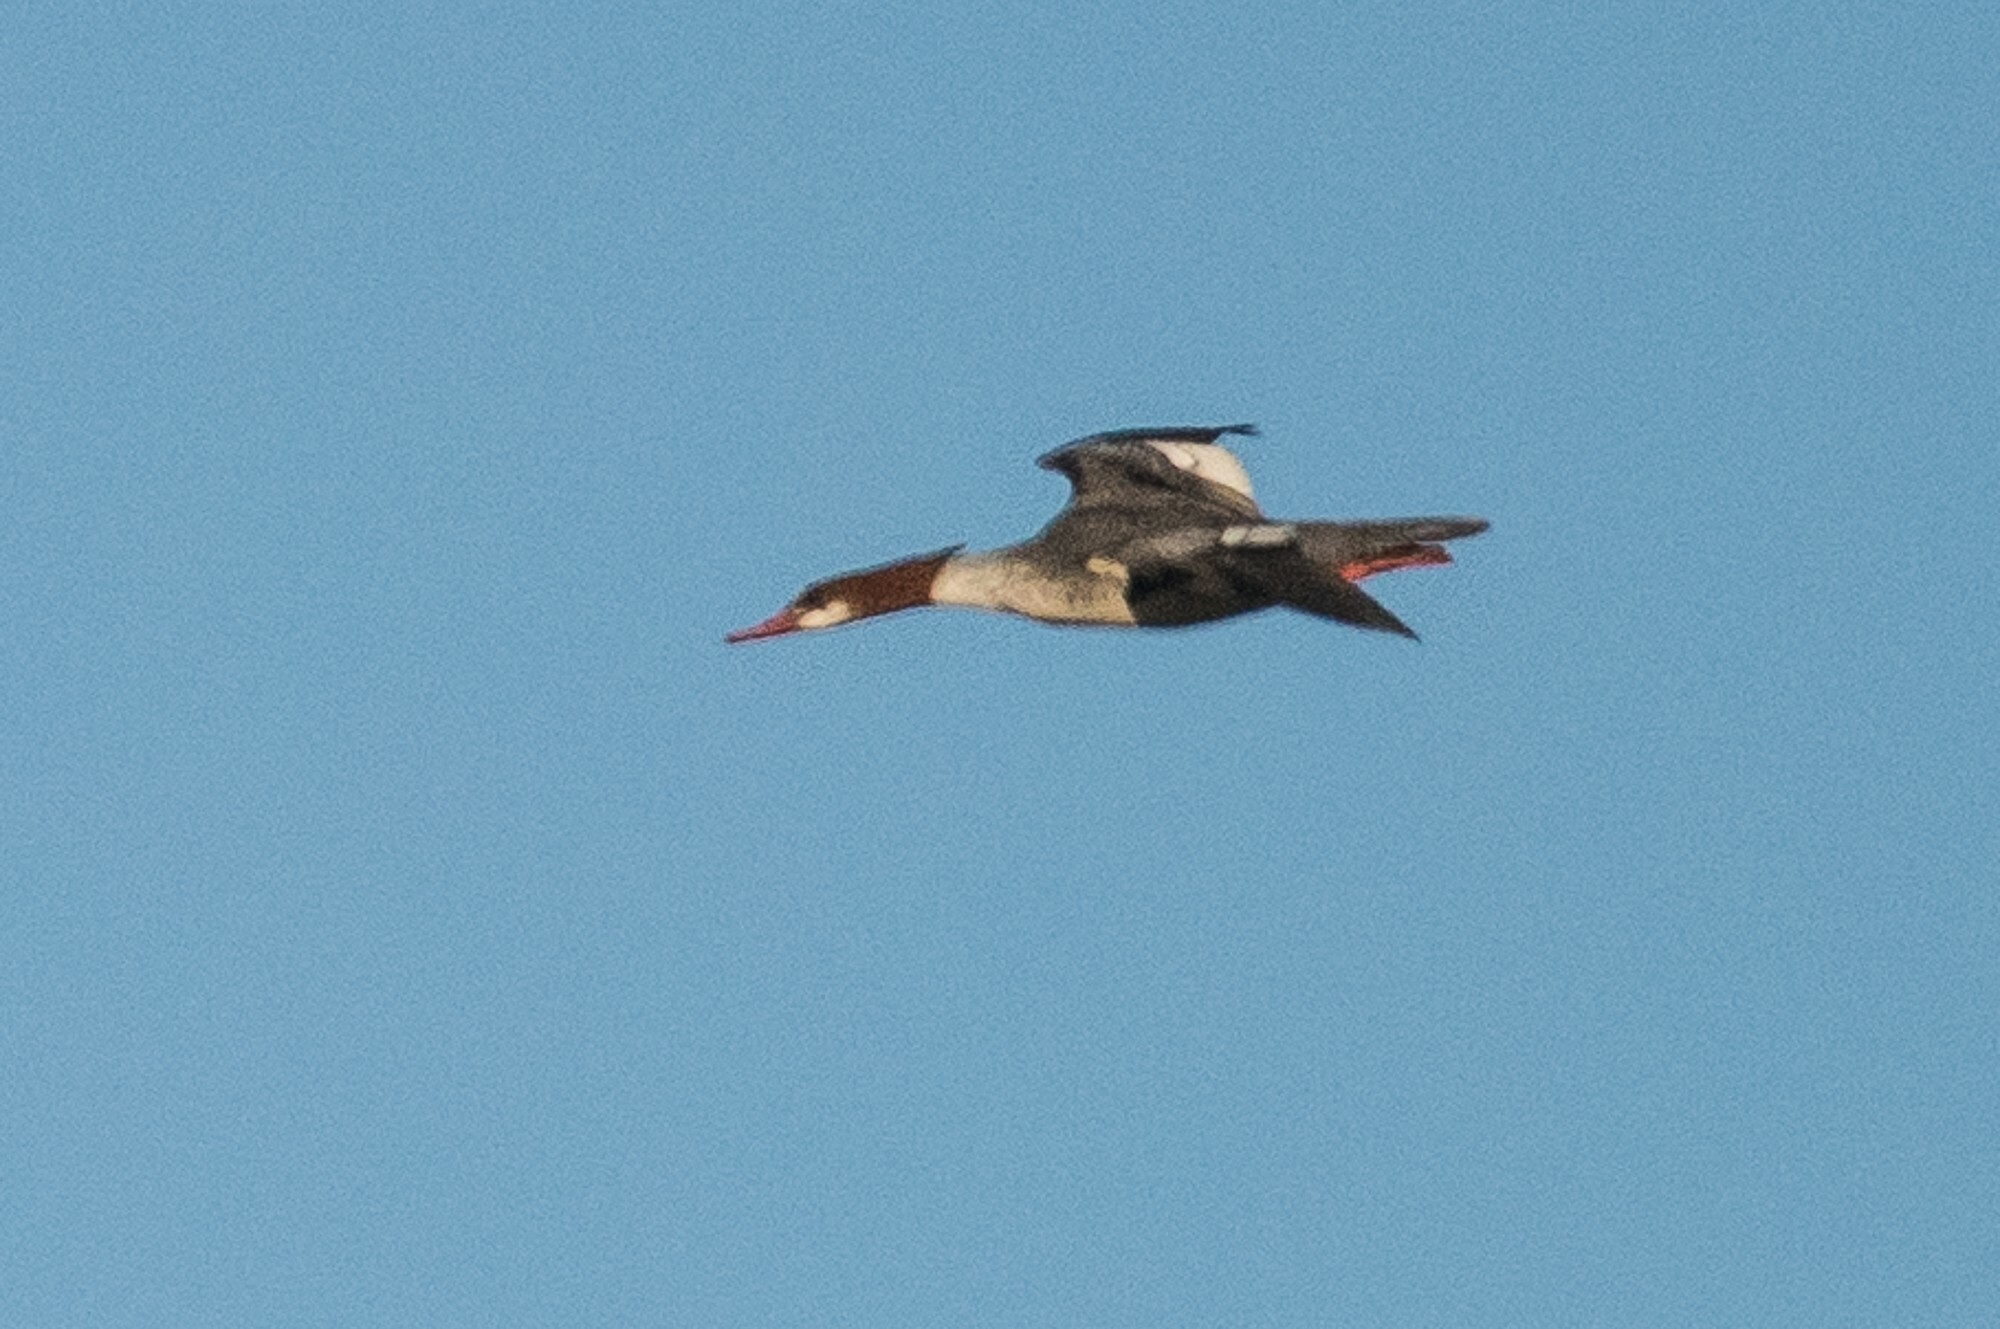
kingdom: Animalia
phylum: Chordata
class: Aves
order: Anseriformes
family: Anatidae
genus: Mergus
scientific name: Mergus merganser
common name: Common merganser
